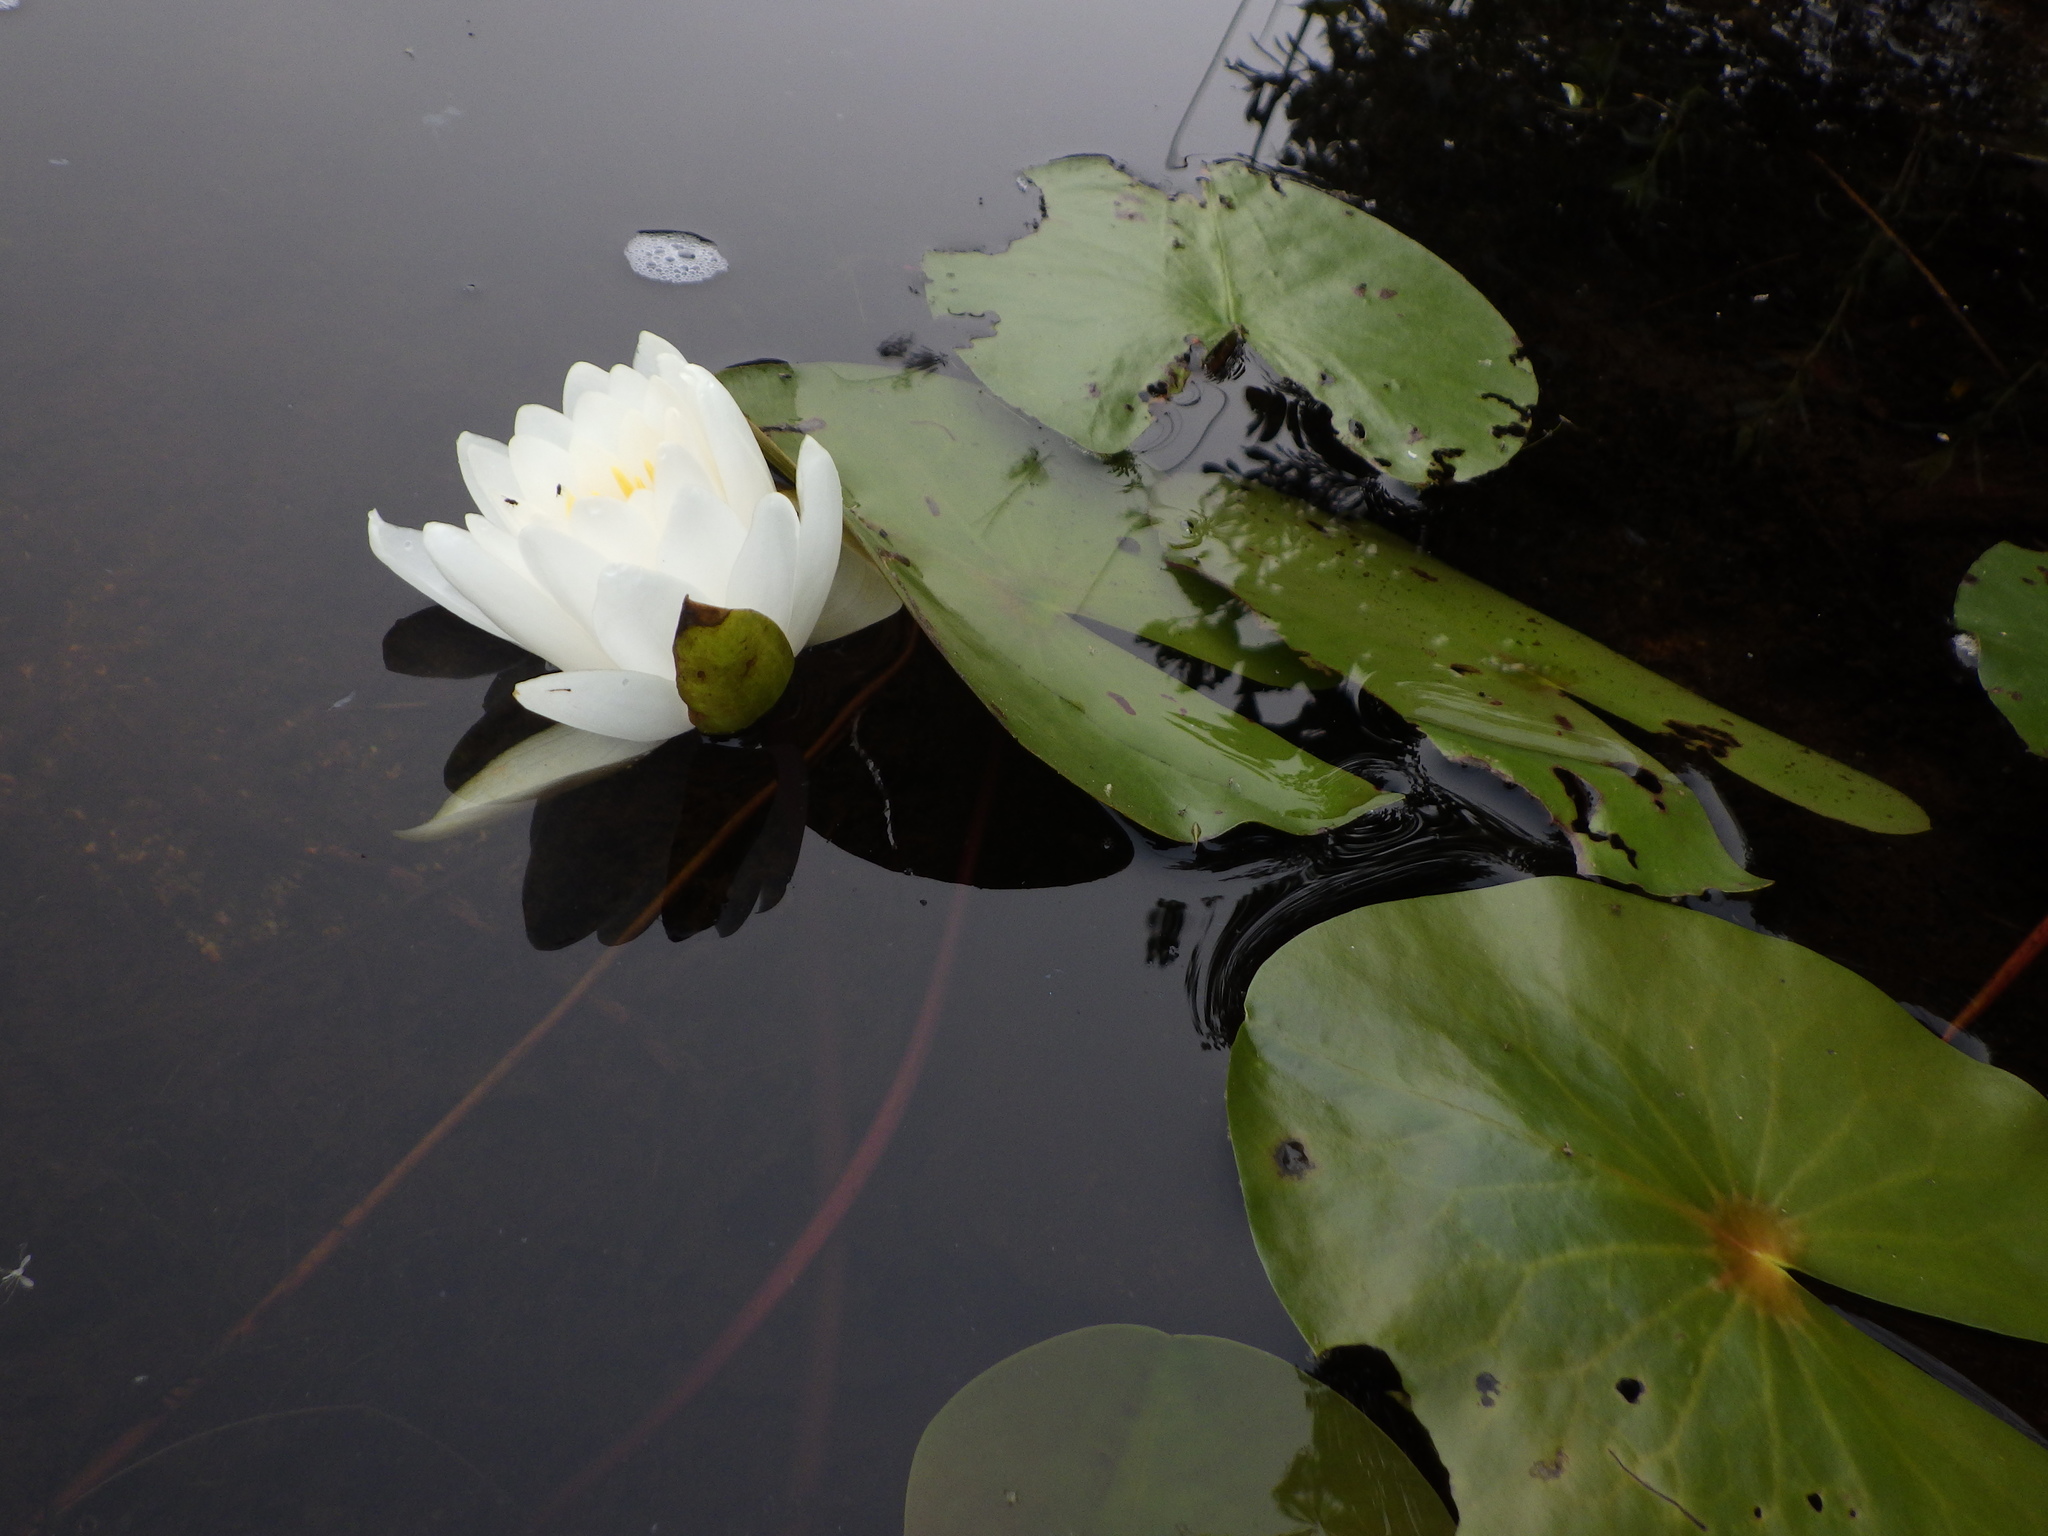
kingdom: Plantae
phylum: Tracheophyta
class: Magnoliopsida
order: Nymphaeales
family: Nymphaeaceae
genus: Nymphaea
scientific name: Nymphaea odorata
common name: Fragrant water-lily
